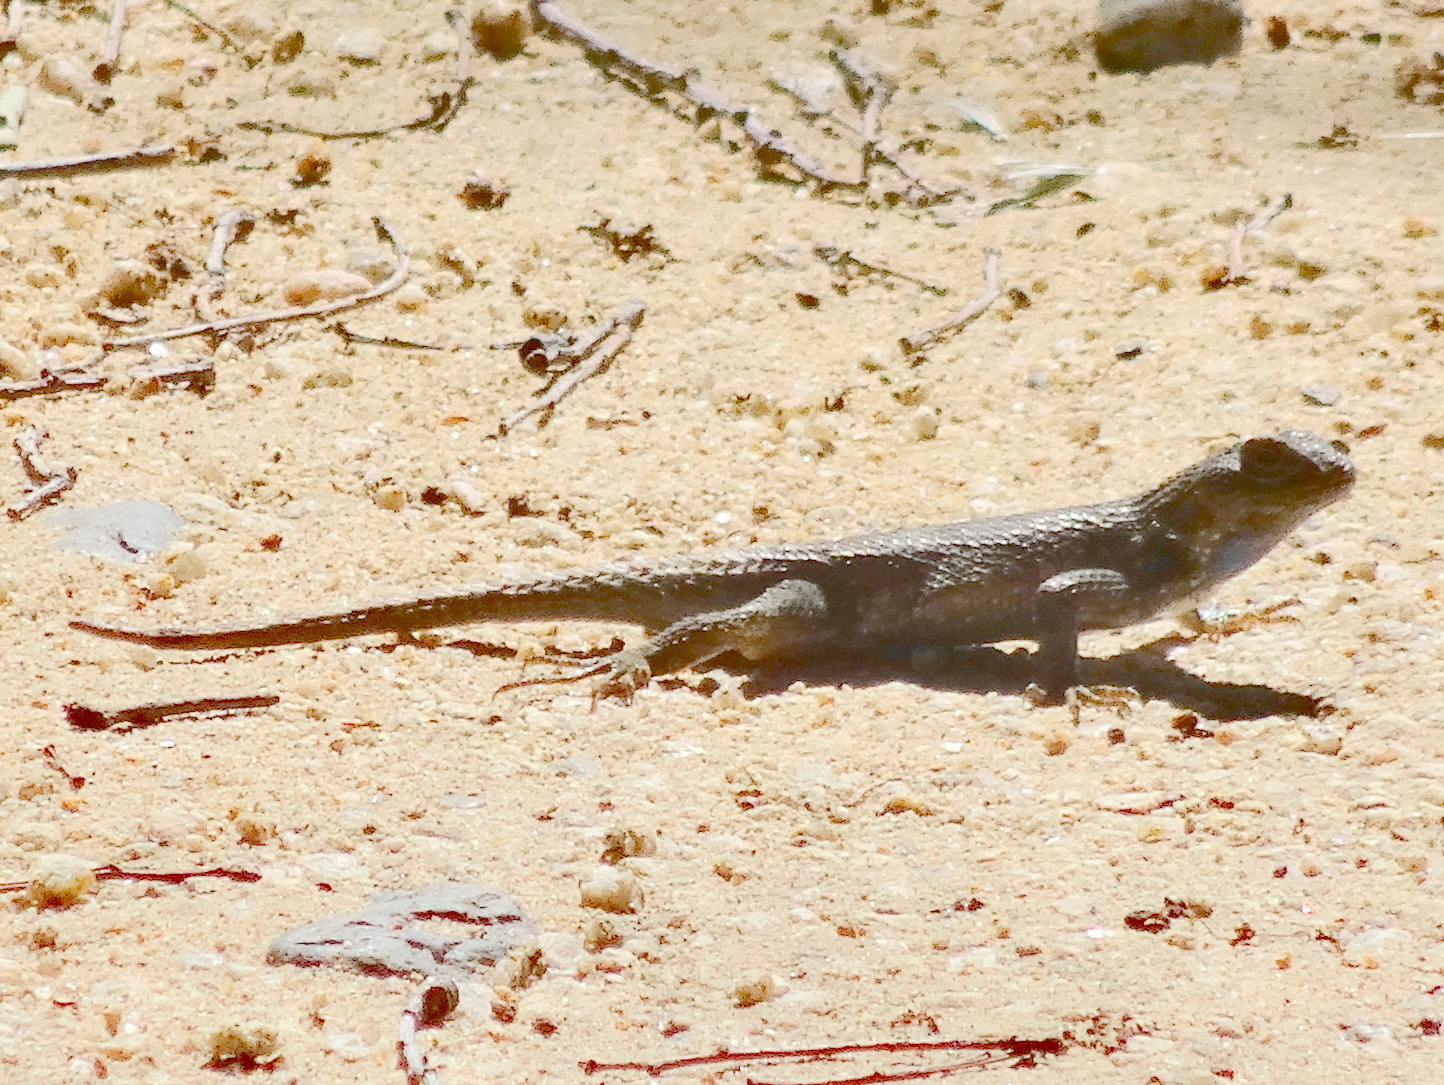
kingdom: Animalia
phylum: Chordata
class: Squamata
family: Phrynosomatidae
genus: Sceloporus
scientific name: Sceloporus occidentalis
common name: Western fence lizard
